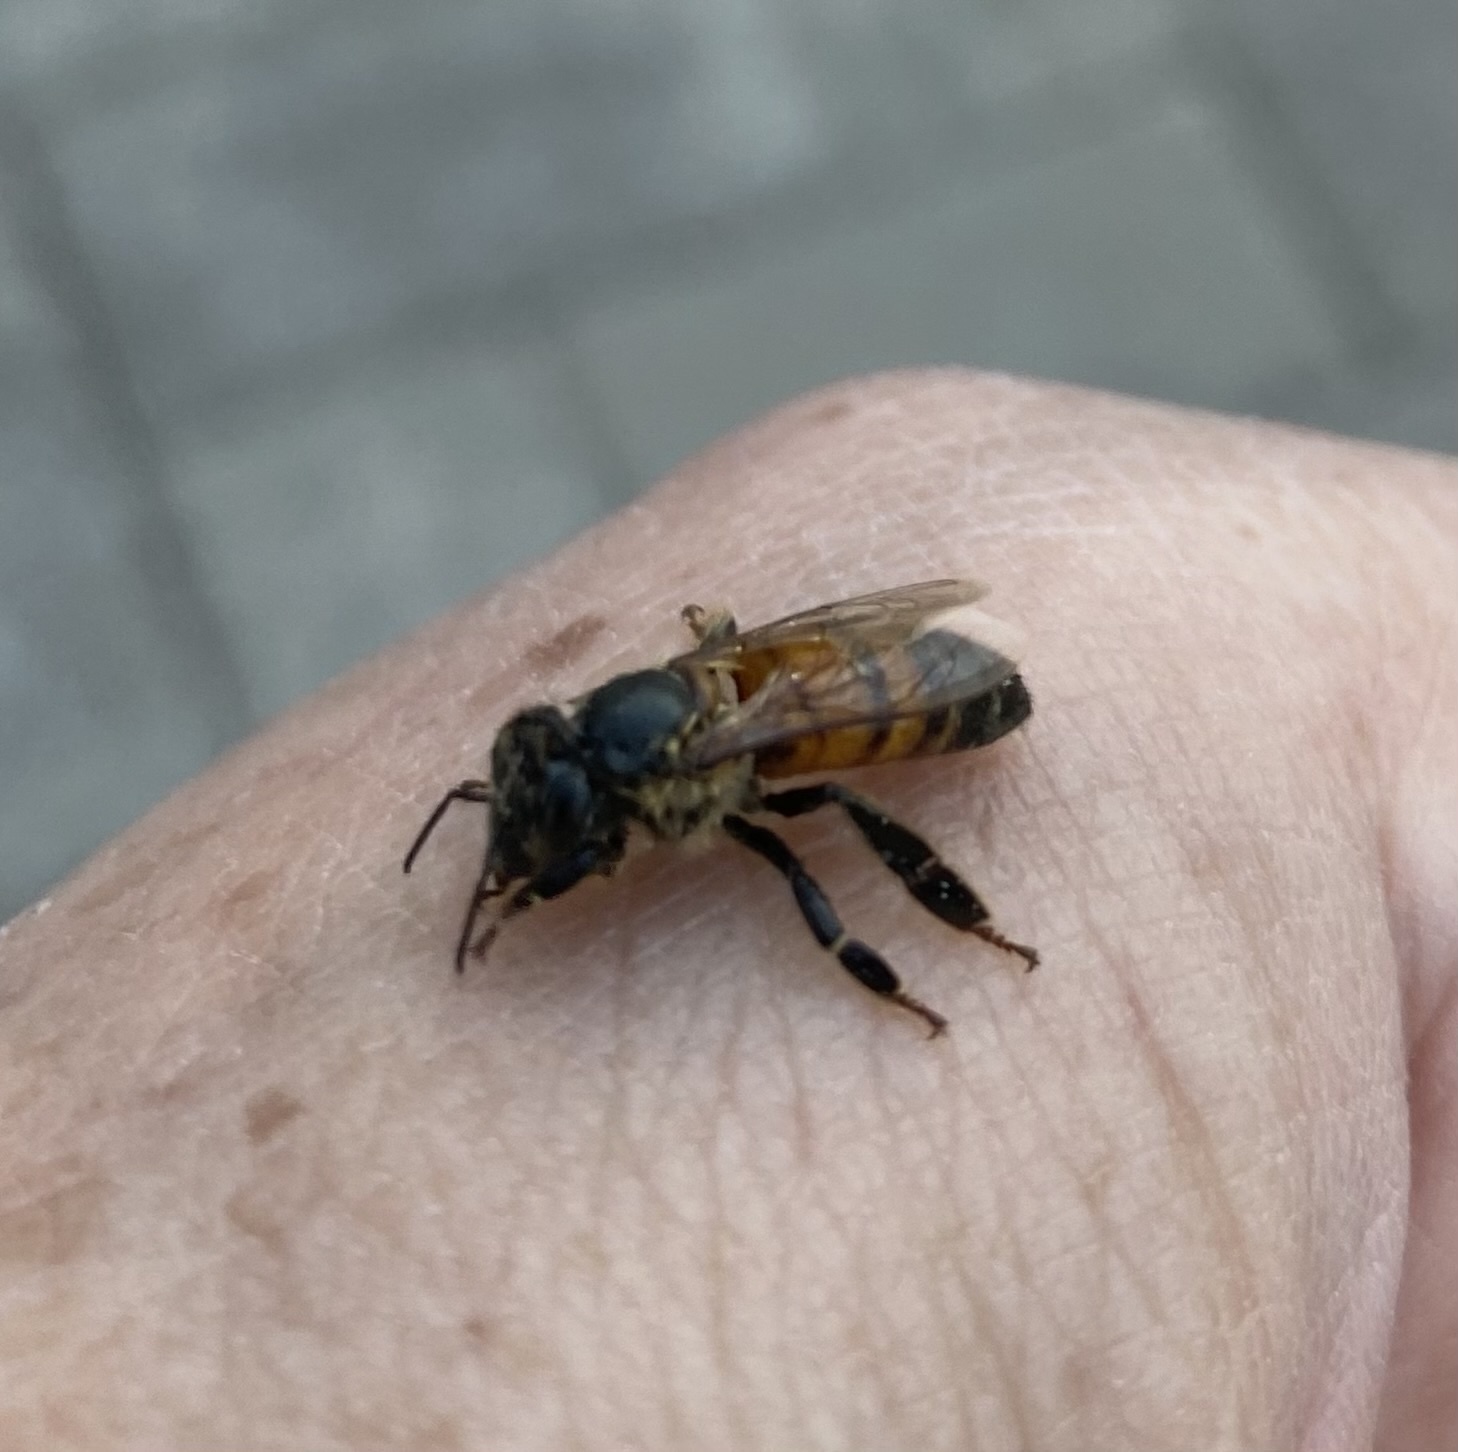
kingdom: Animalia
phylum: Arthropoda
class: Insecta
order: Hymenoptera
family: Apidae
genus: Apis
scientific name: Apis mellifera
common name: Honey bee
